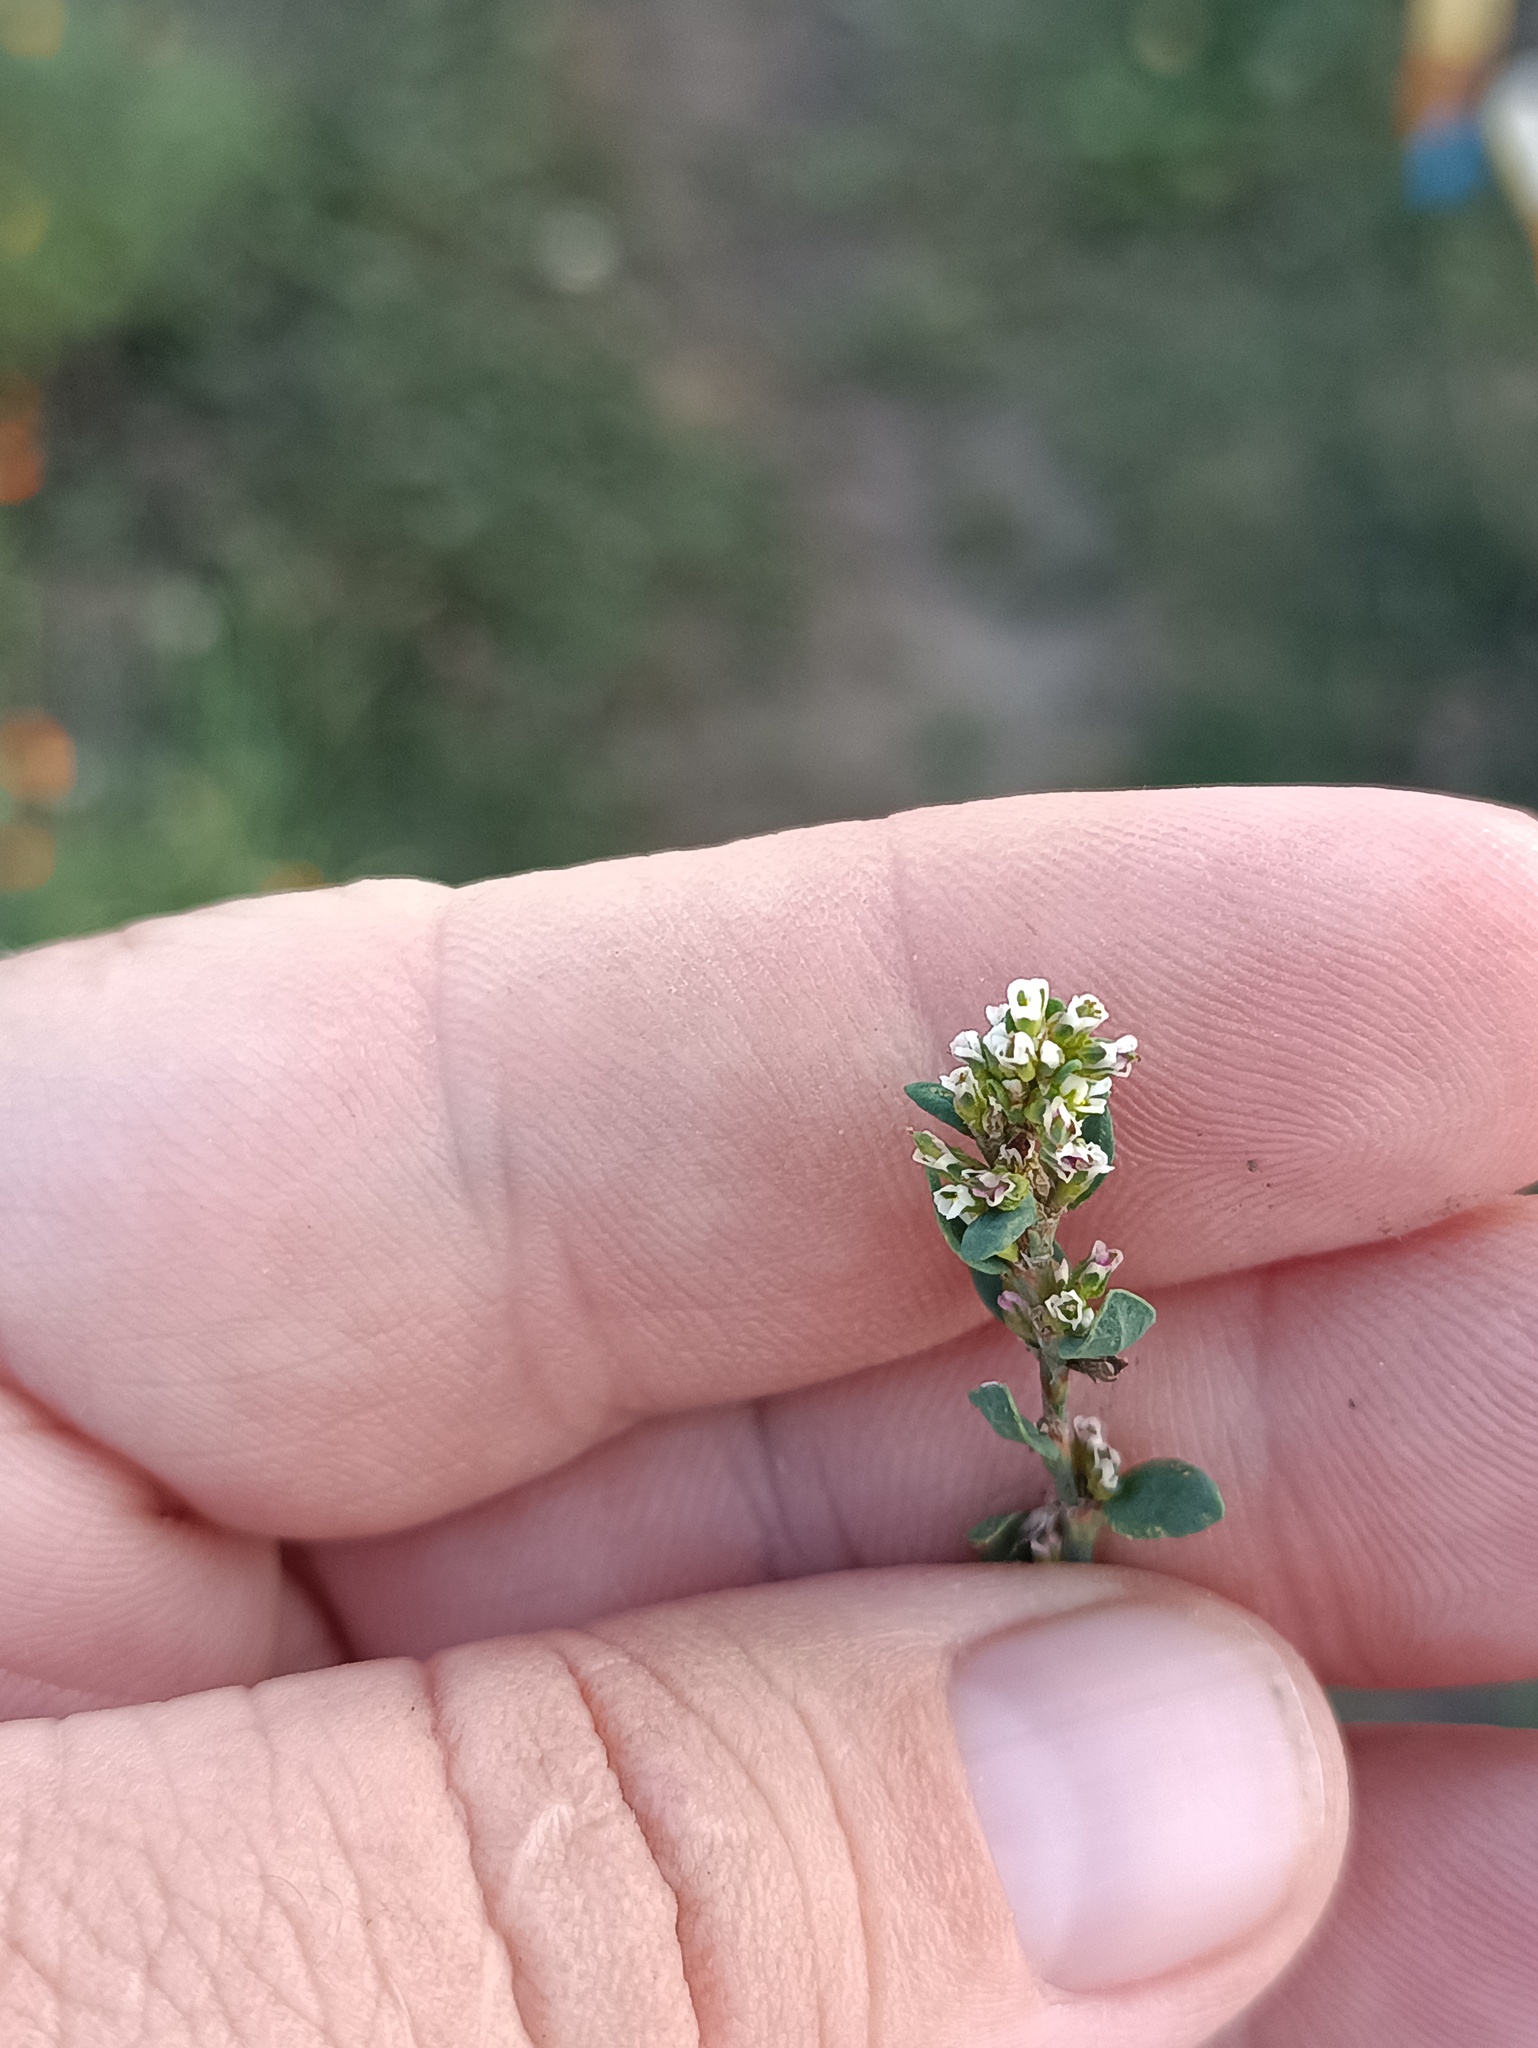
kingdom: Plantae
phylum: Tracheophyta
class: Magnoliopsida
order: Caryophyllales
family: Polygonaceae
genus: Polygonum
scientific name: Polygonum
